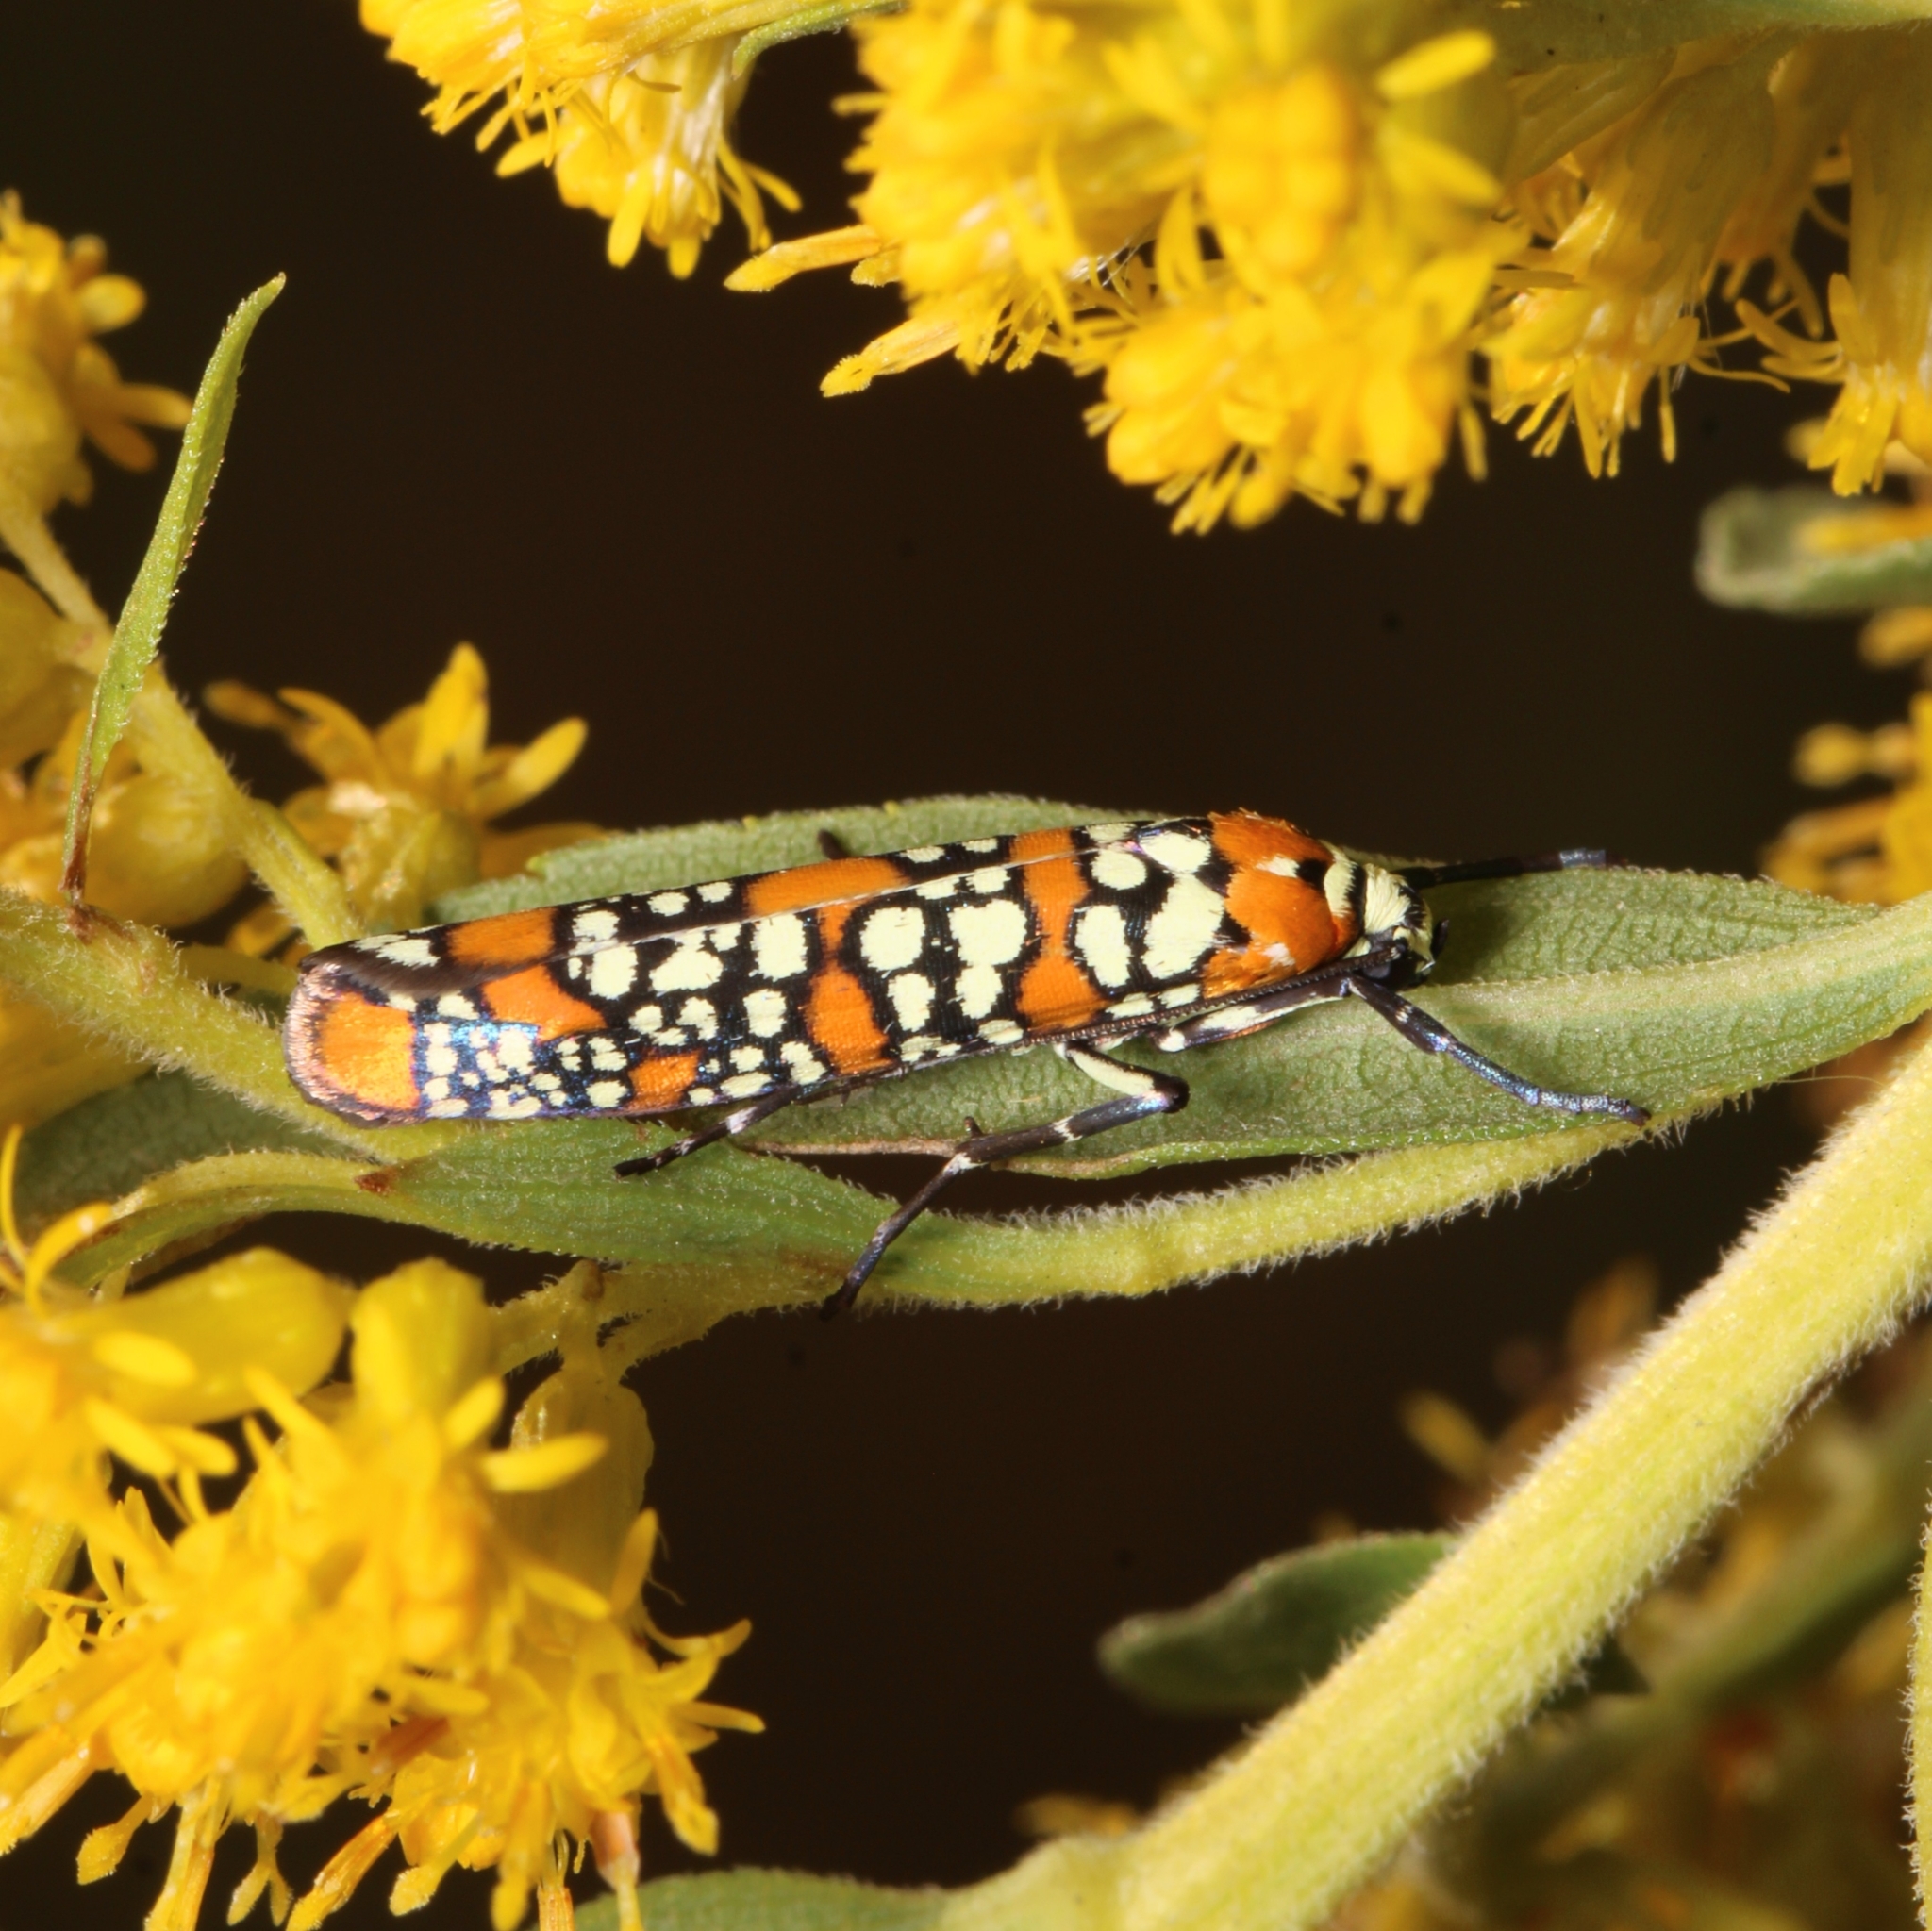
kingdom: Animalia
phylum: Arthropoda
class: Insecta
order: Lepidoptera
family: Attevidae
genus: Atteva
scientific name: Atteva punctella
